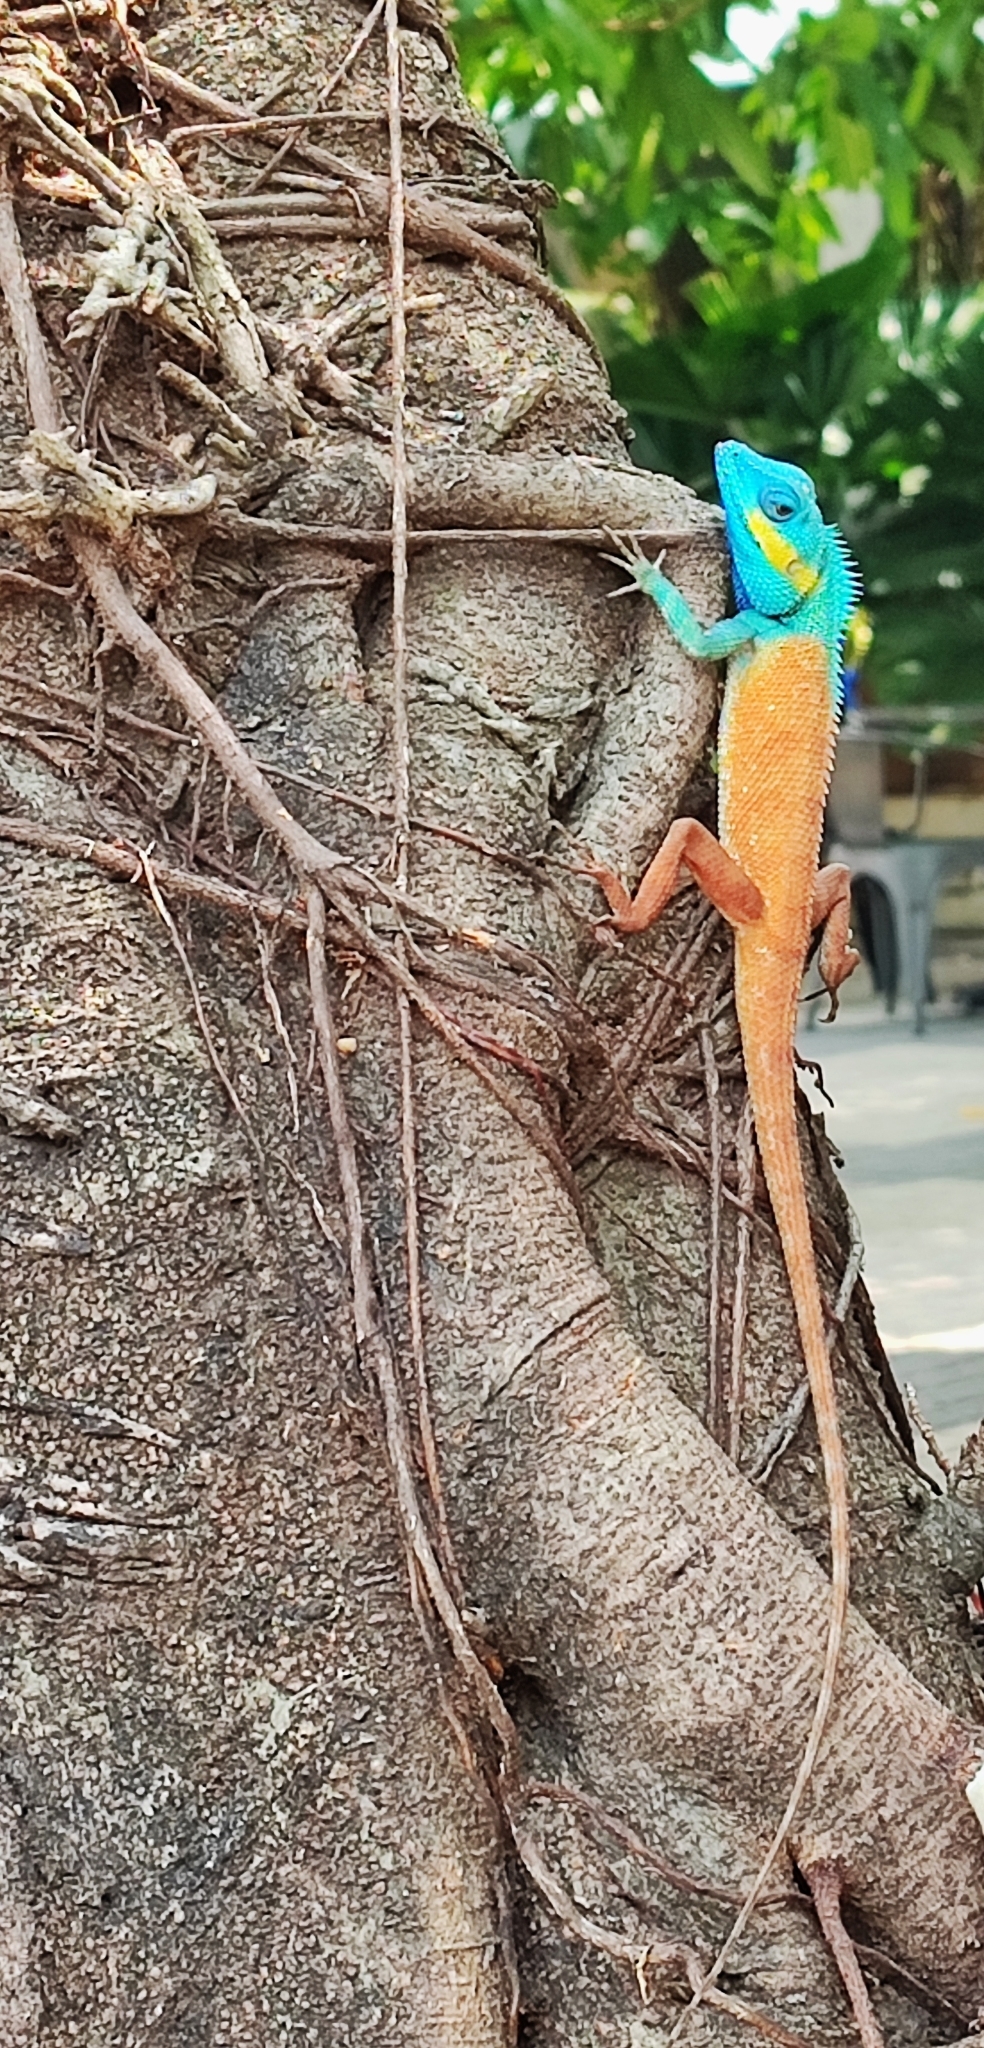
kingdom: Animalia
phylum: Chordata
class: Squamata
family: Agamidae
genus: Calotes
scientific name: Calotes bachae
